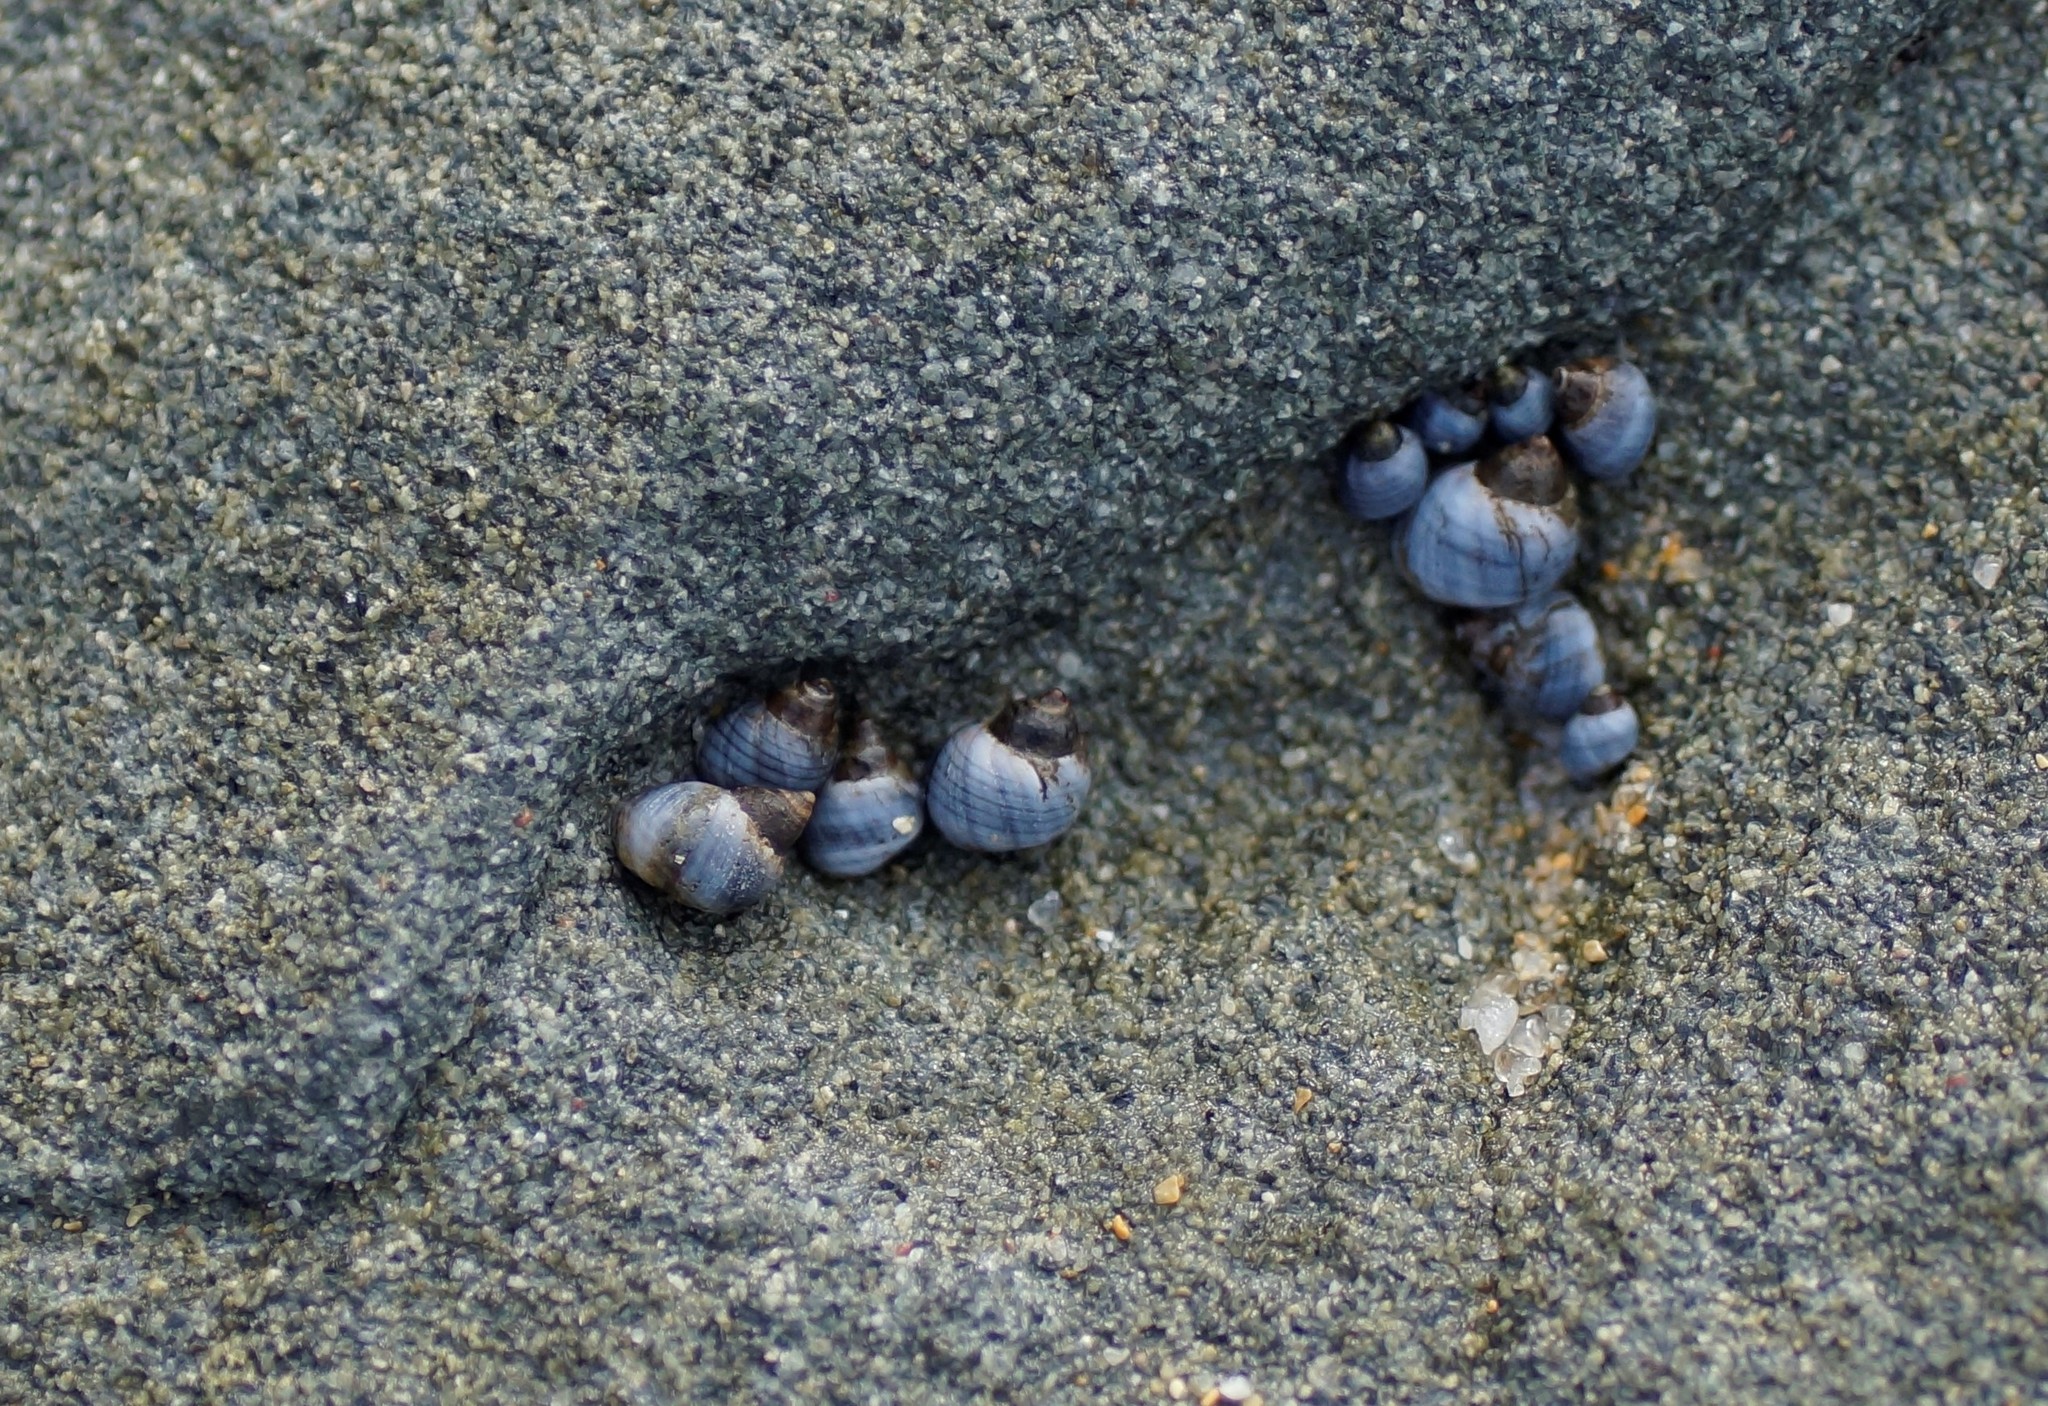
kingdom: Animalia
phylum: Mollusca
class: Gastropoda
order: Littorinimorpha
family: Littorinidae
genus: Austrolittorina
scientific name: Austrolittorina unifasciata
